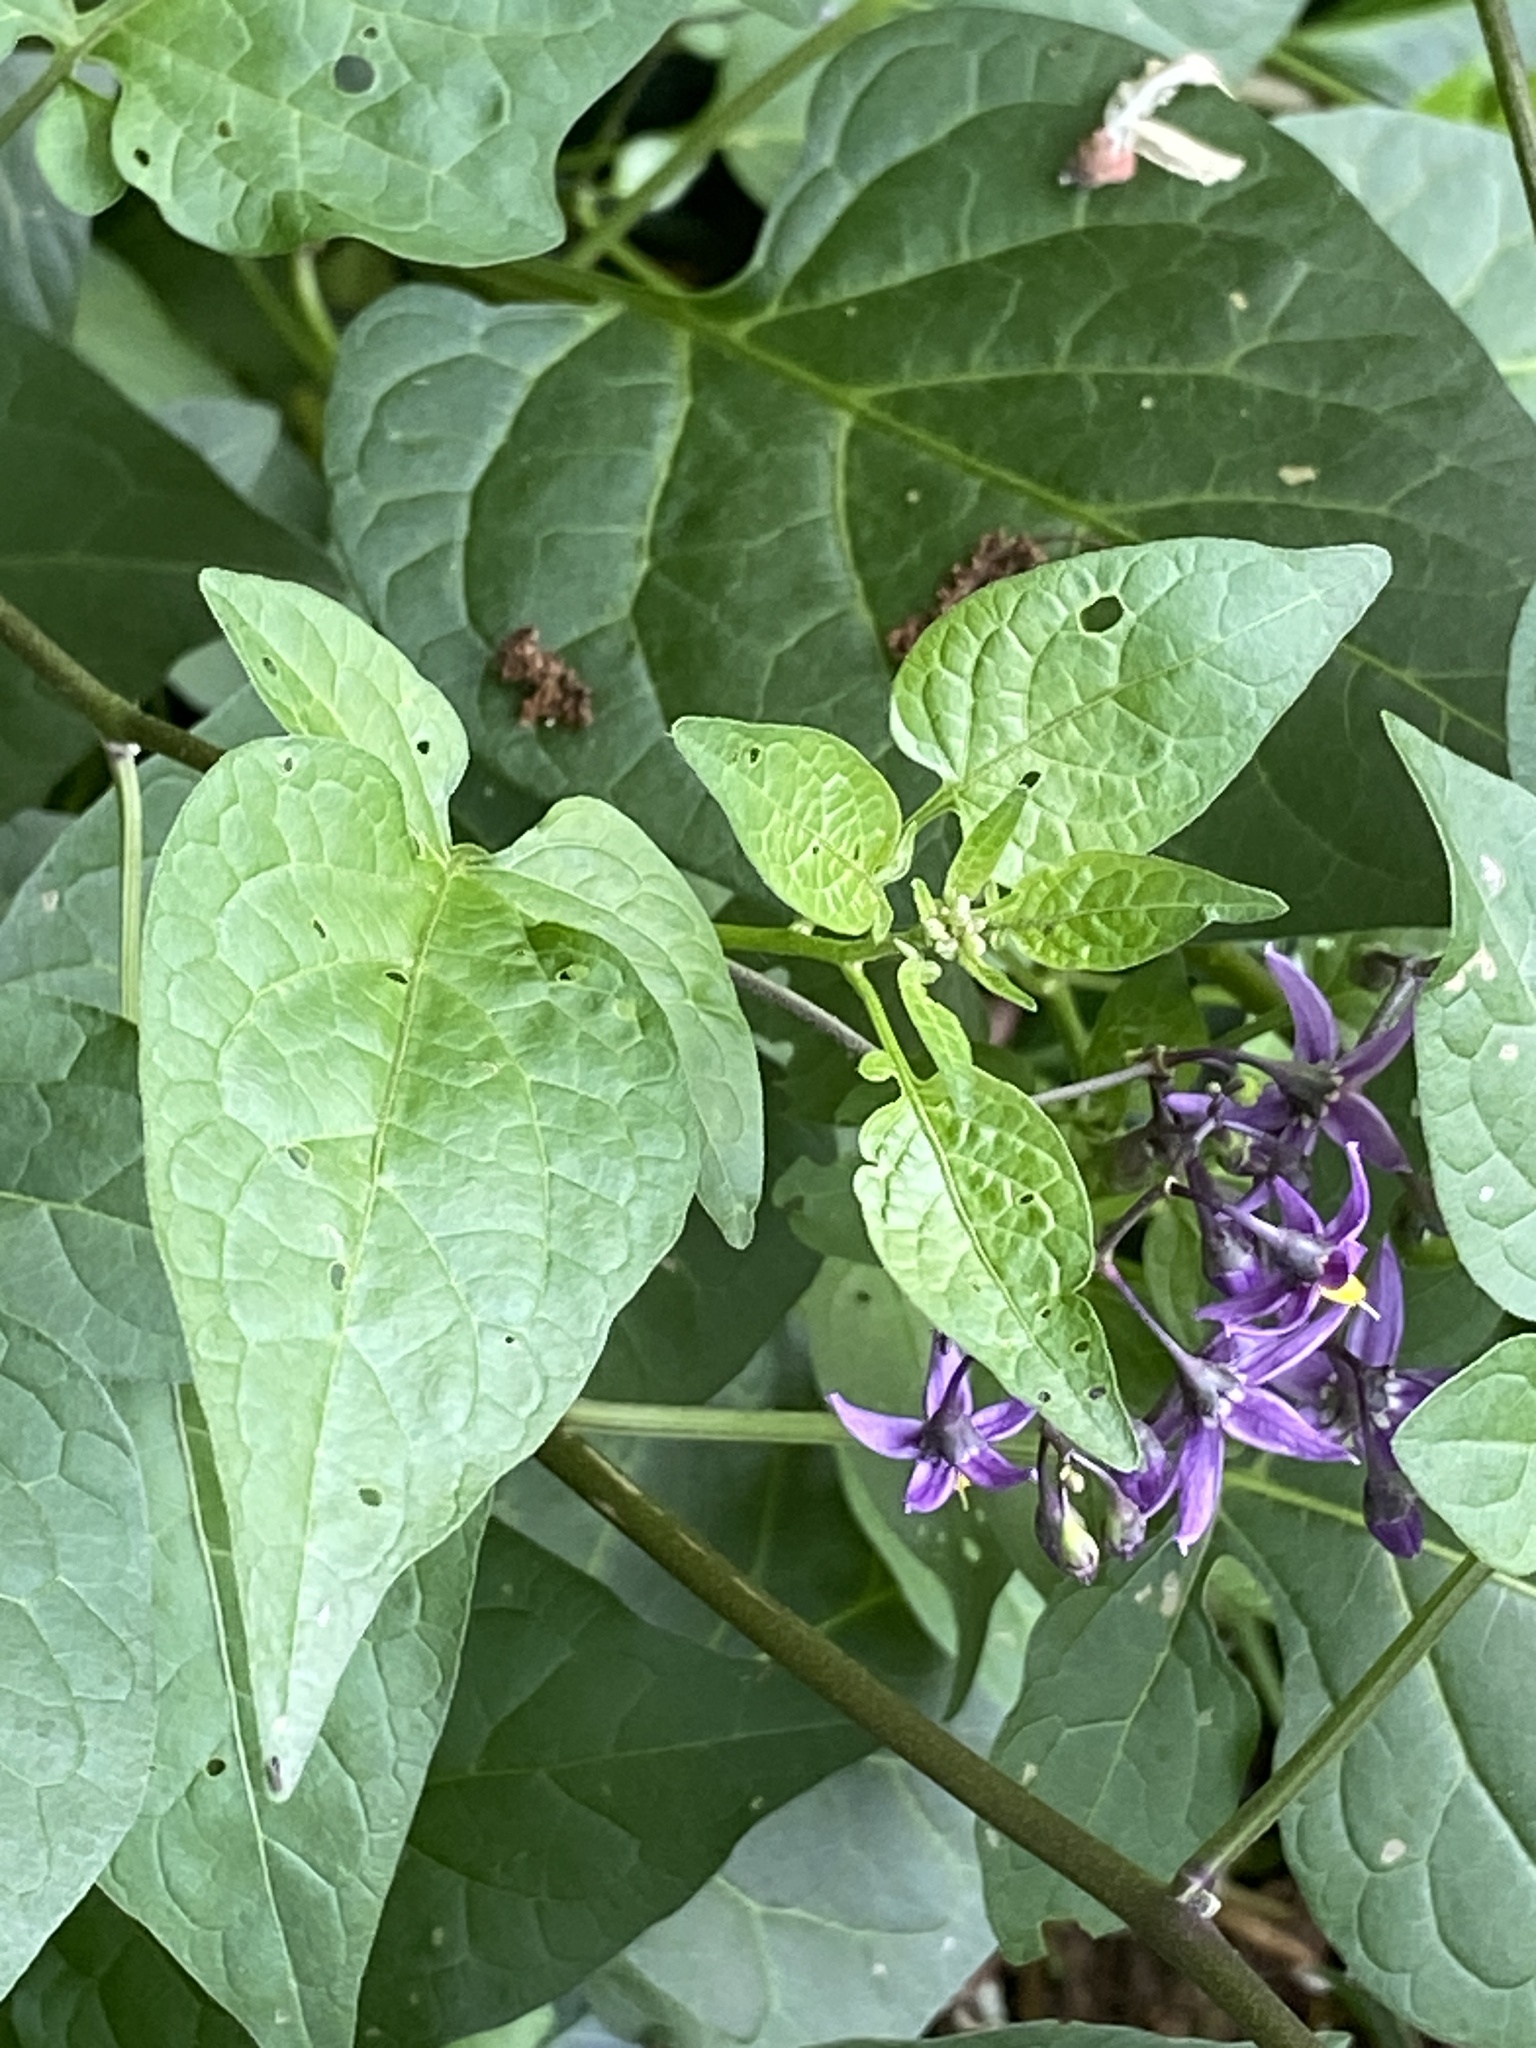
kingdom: Plantae
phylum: Tracheophyta
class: Magnoliopsida
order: Solanales
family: Solanaceae
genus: Solanum
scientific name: Solanum dulcamara
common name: Climbing nightshade
